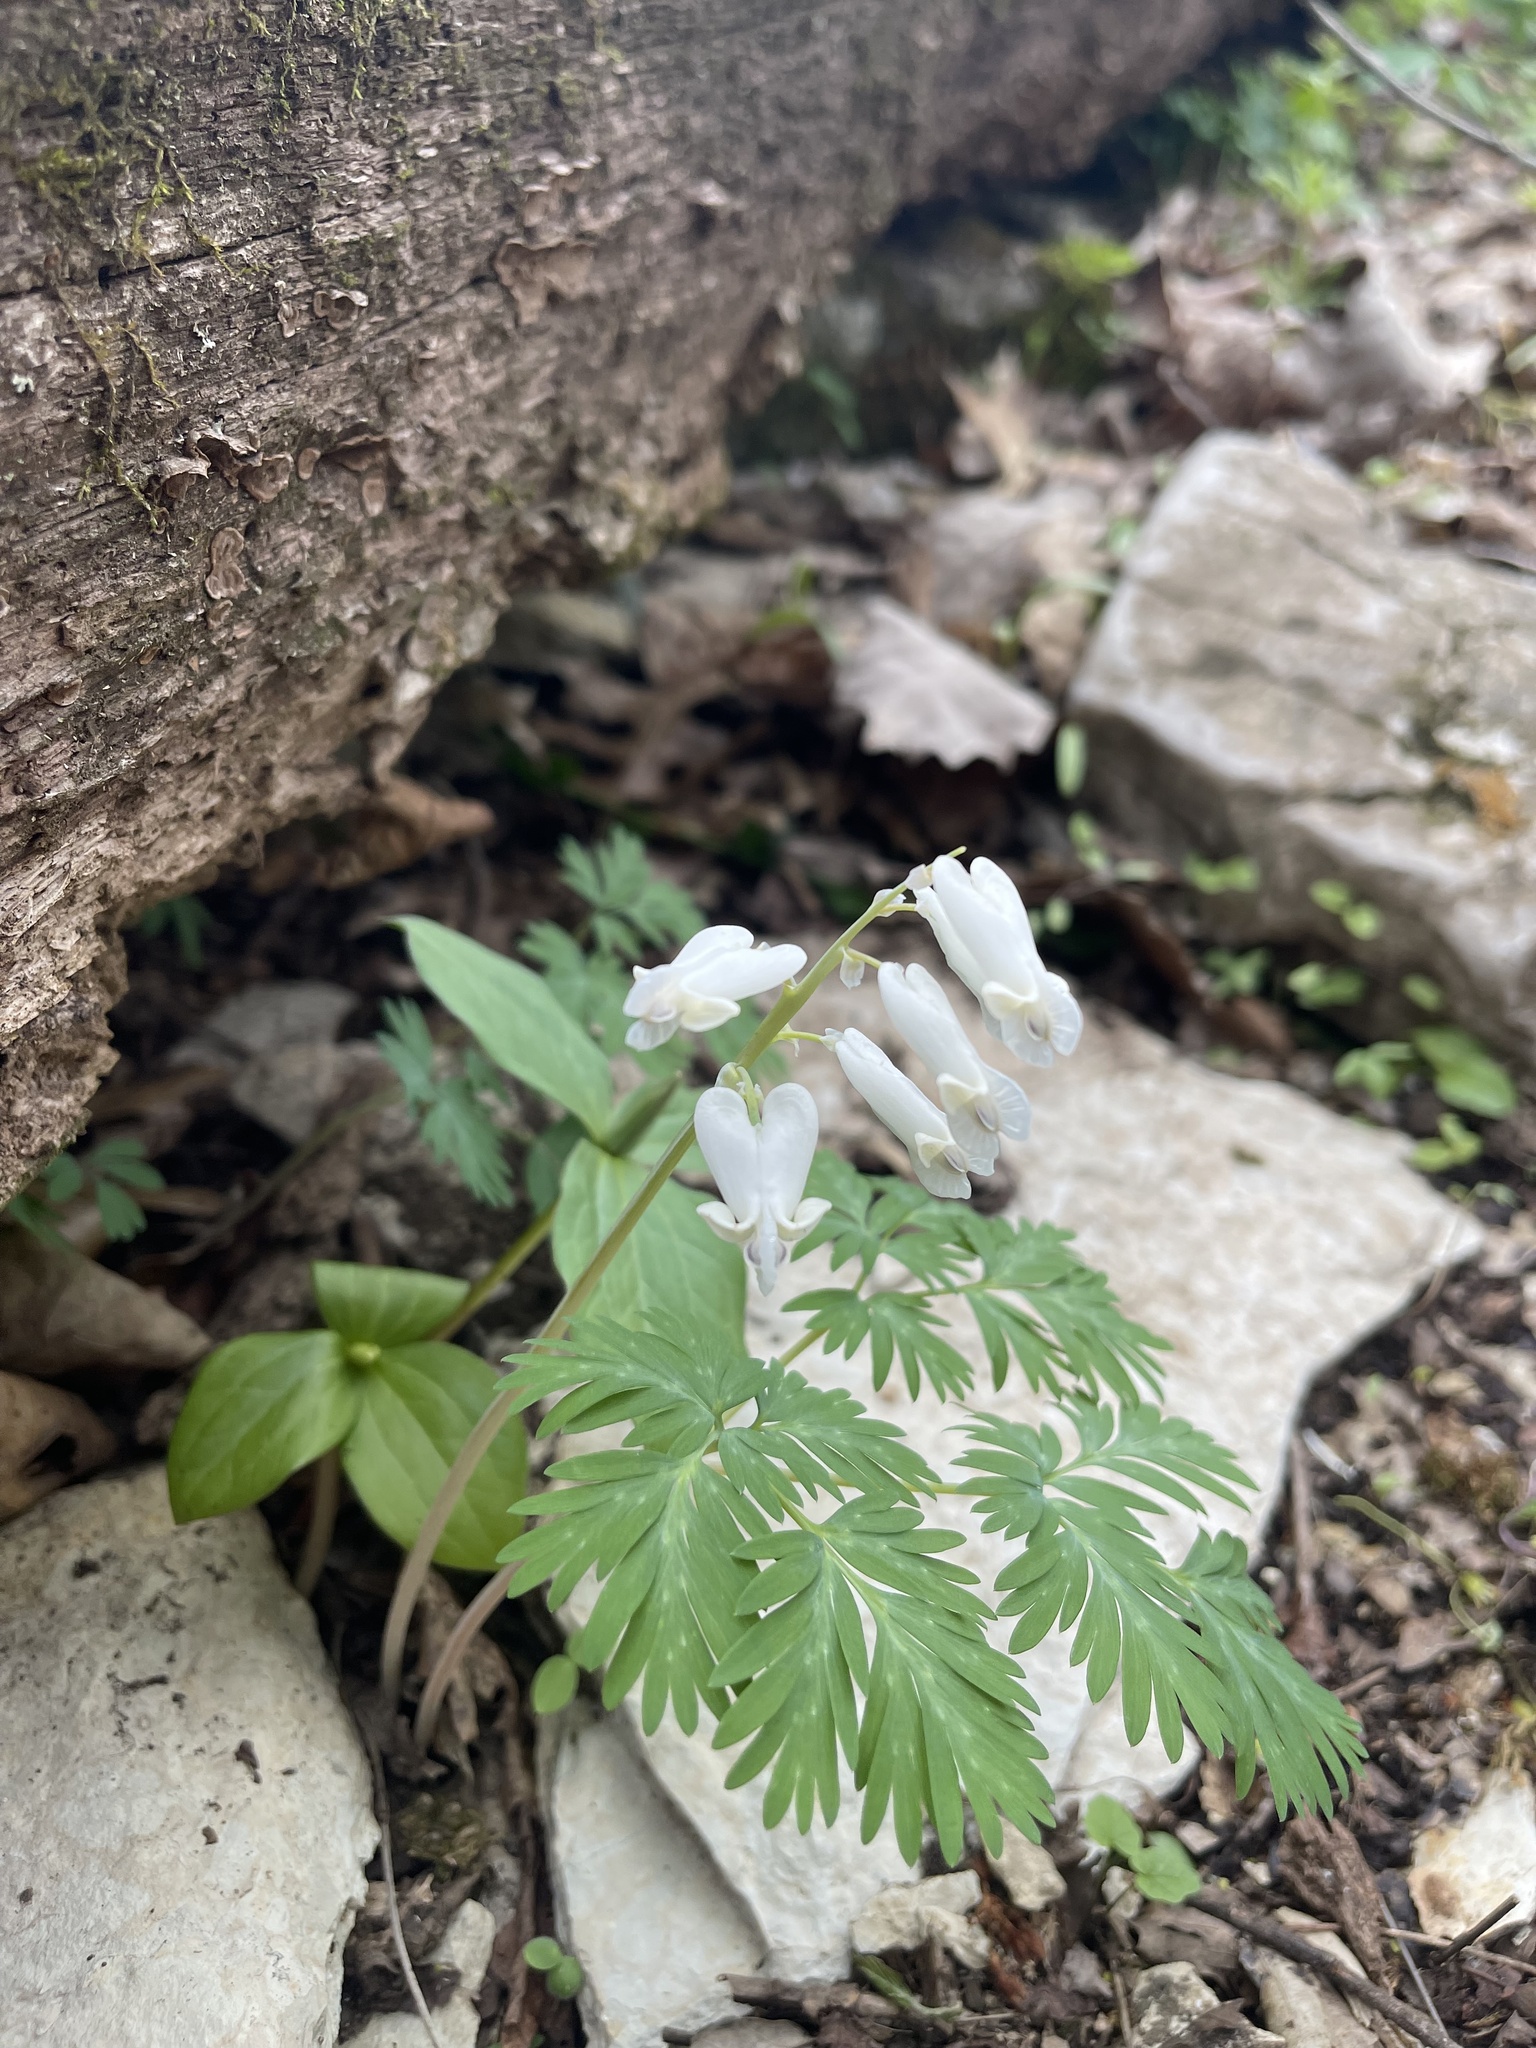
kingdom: Plantae
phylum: Tracheophyta
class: Magnoliopsida
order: Ranunculales
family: Papaveraceae
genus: Dicentra
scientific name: Dicentra canadensis
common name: Squirrel-corn
